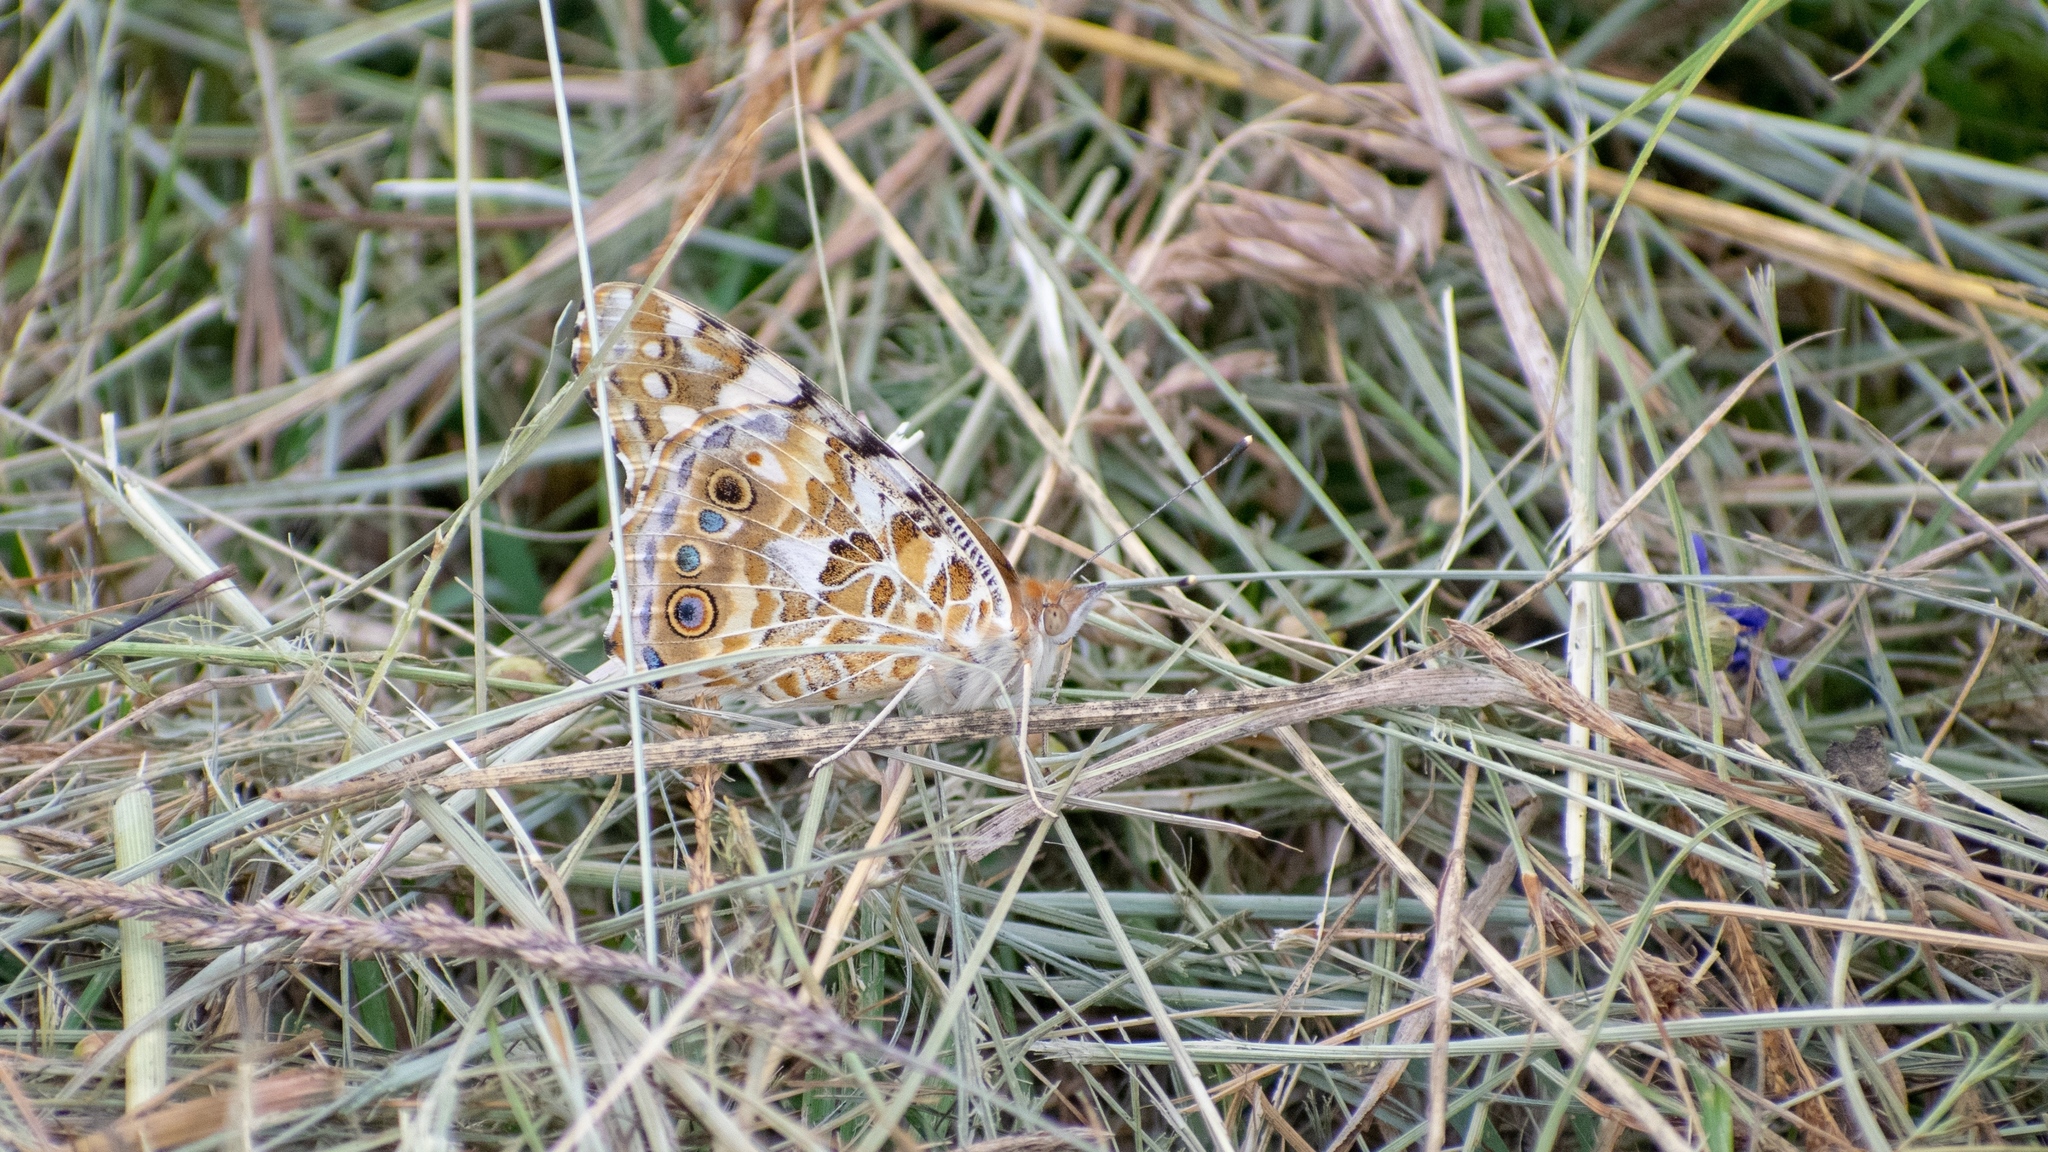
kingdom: Animalia
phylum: Arthropoda
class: Insecta
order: Lepidoptera
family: Nymphalidae
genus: Vanessa
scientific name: Vanessa cardui
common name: Painted lady
